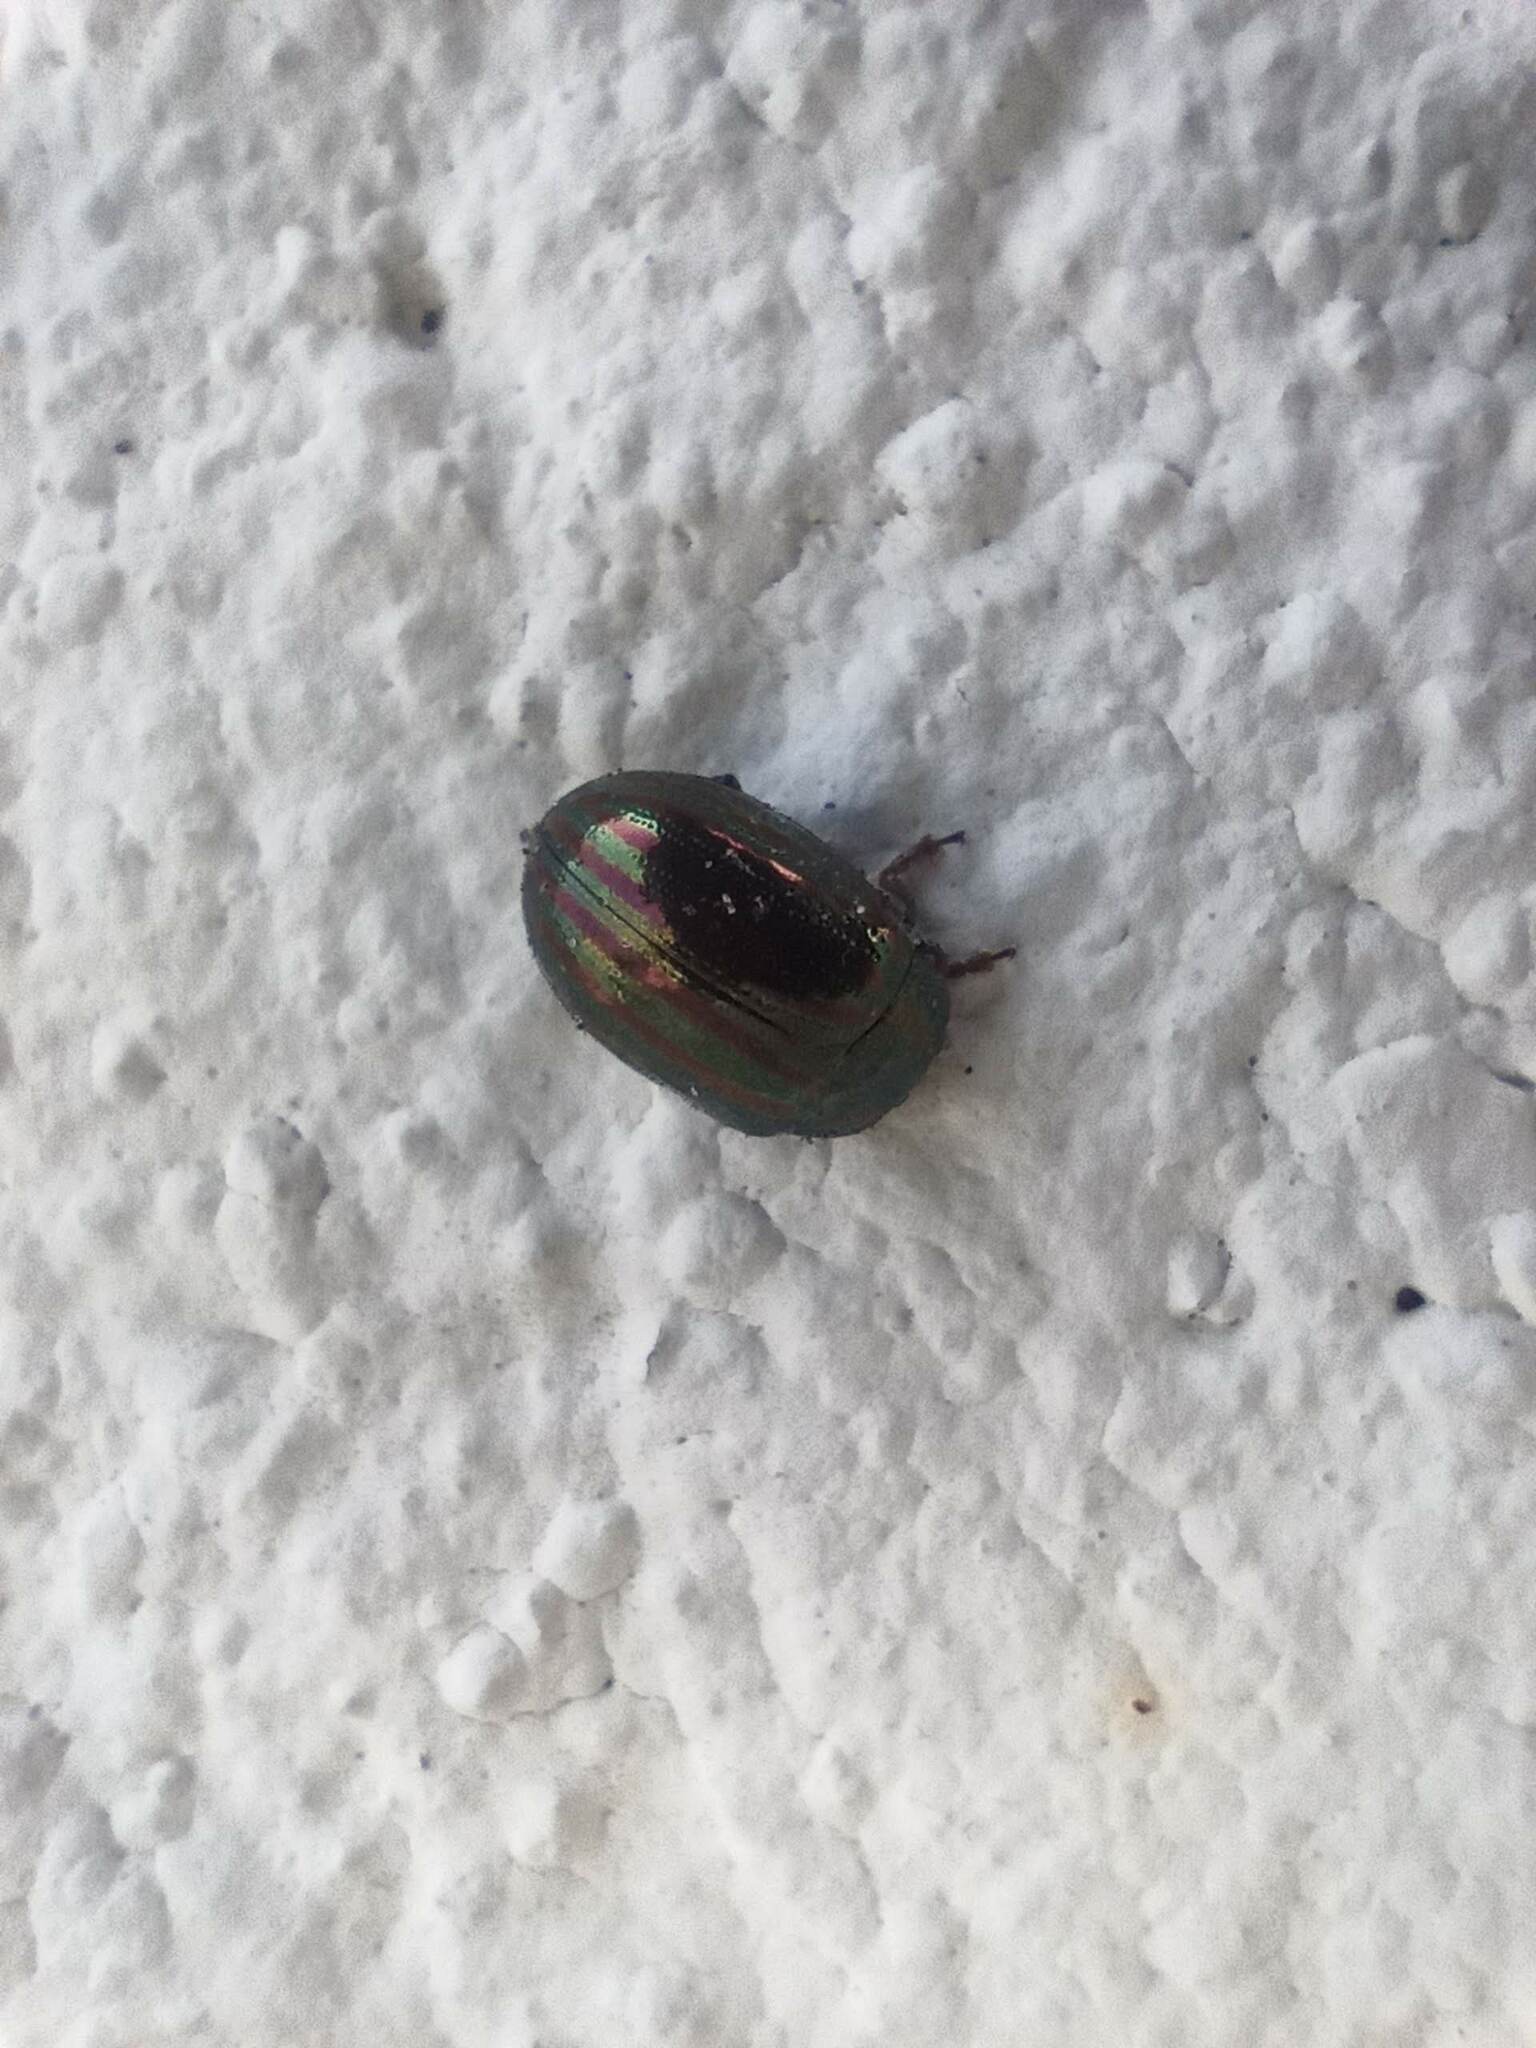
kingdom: Animalia
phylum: Arthropoda
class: Insecta
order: Coleoptera
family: Chrysomelidae
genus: Chrysolina
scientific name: Chrysolina americana
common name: Rosemary beetle
